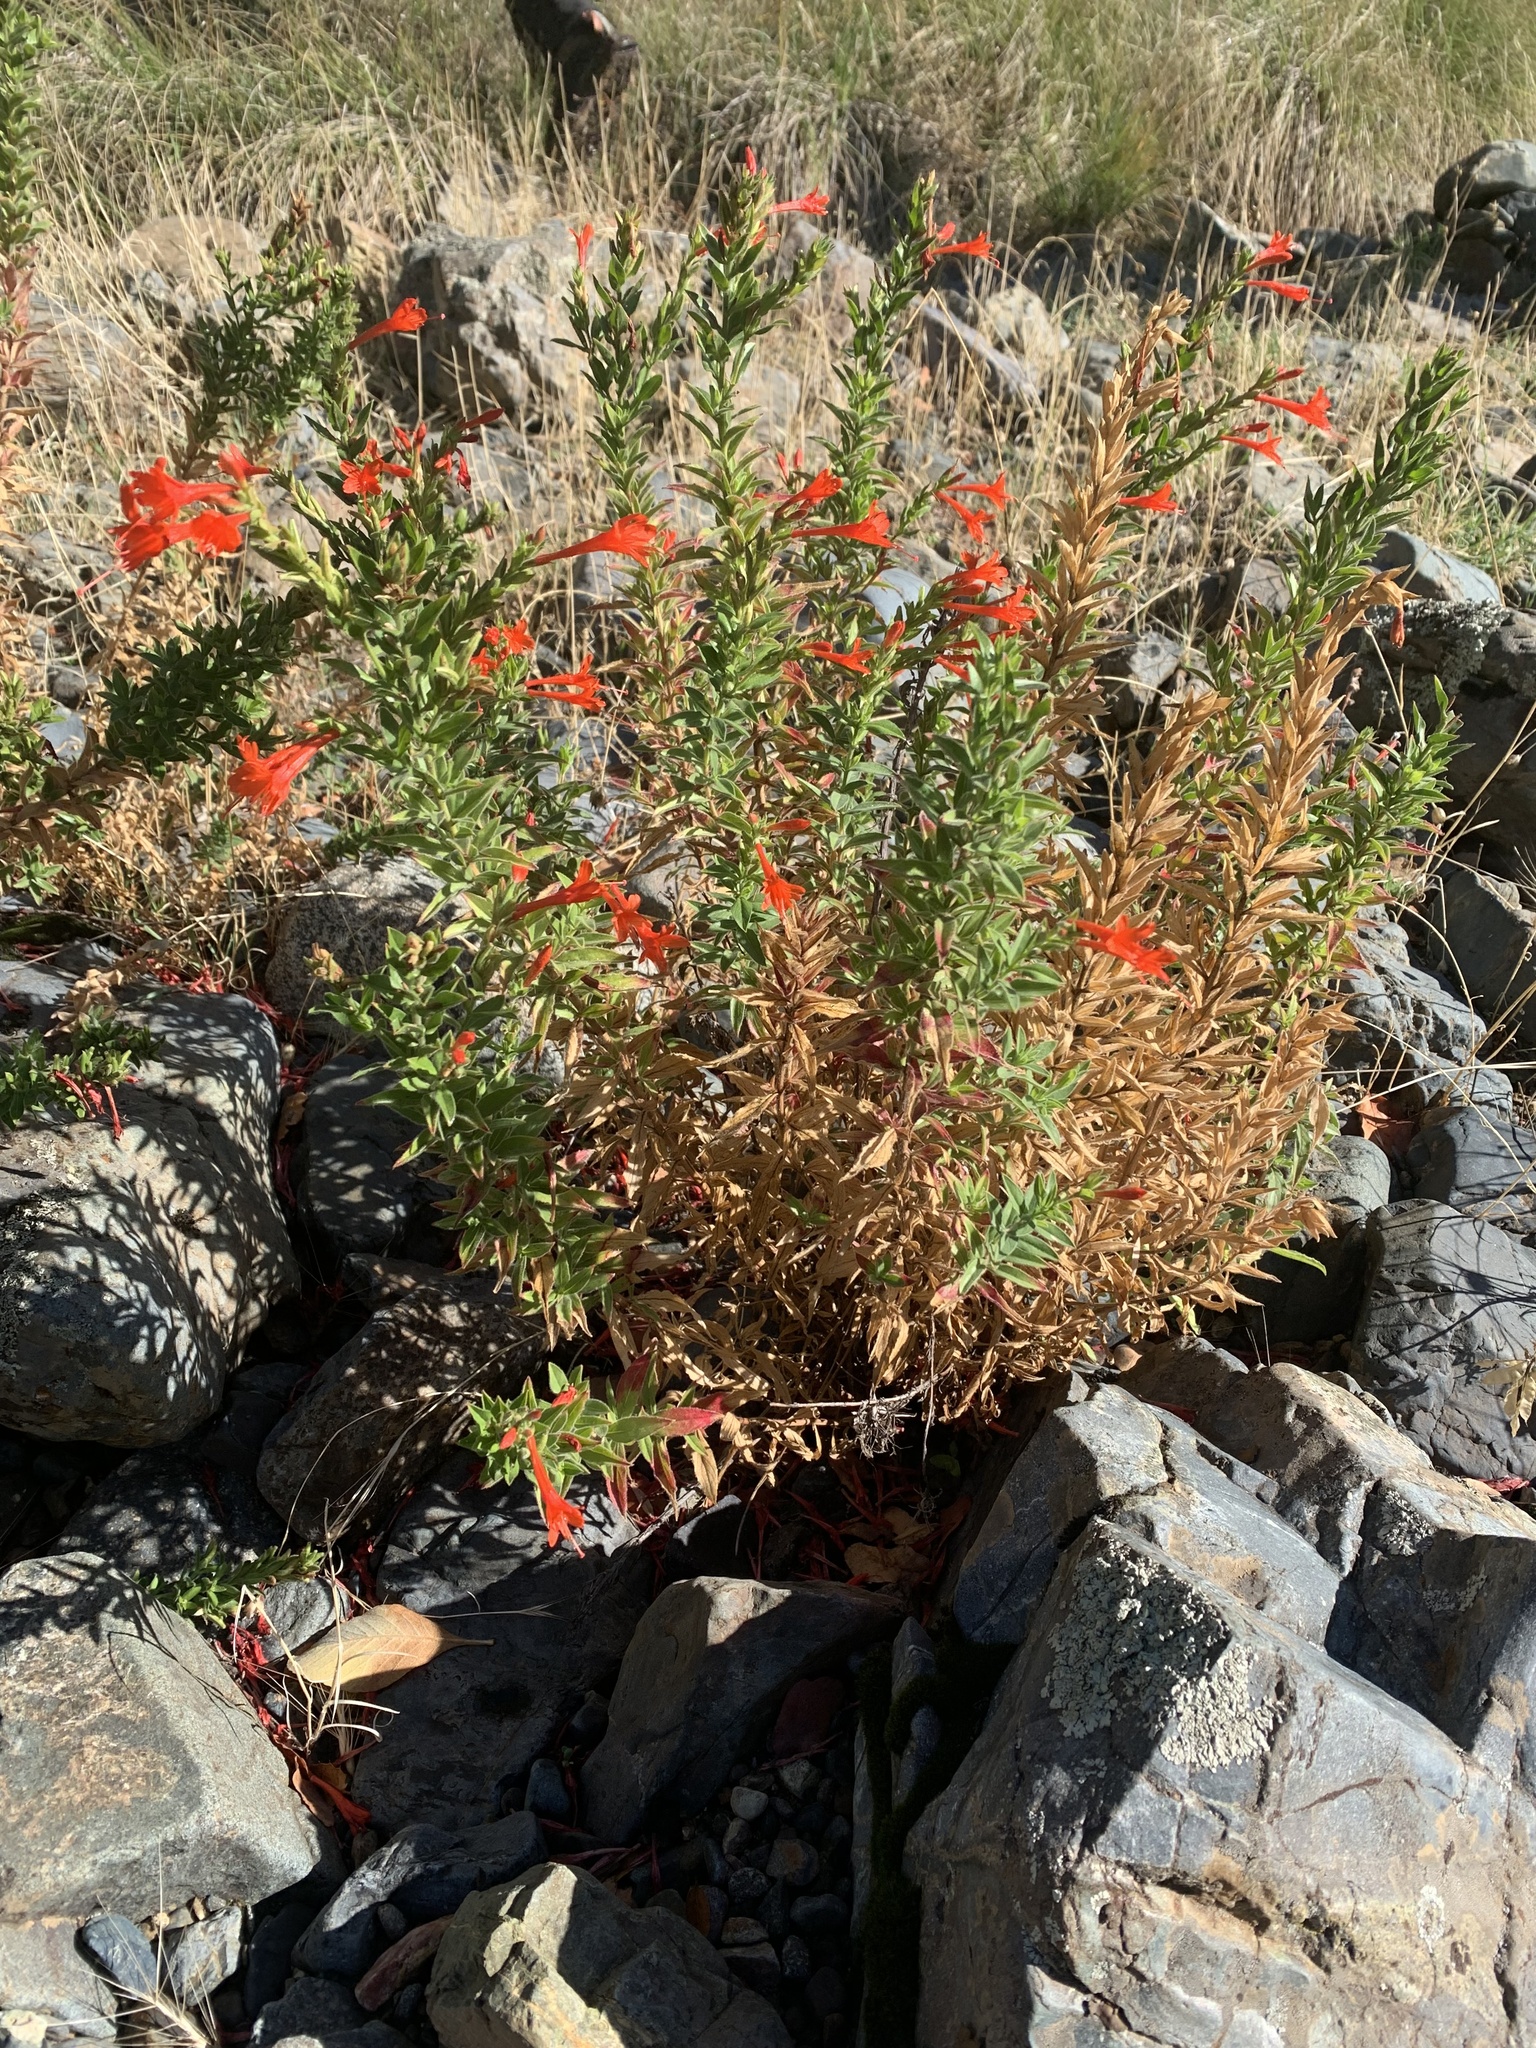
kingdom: Plantae
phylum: Tracheophyta
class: Magnoliopsida
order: Myrtales
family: Onagraceae
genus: Epilobium
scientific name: Epilobium canum
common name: California-fuchsia
